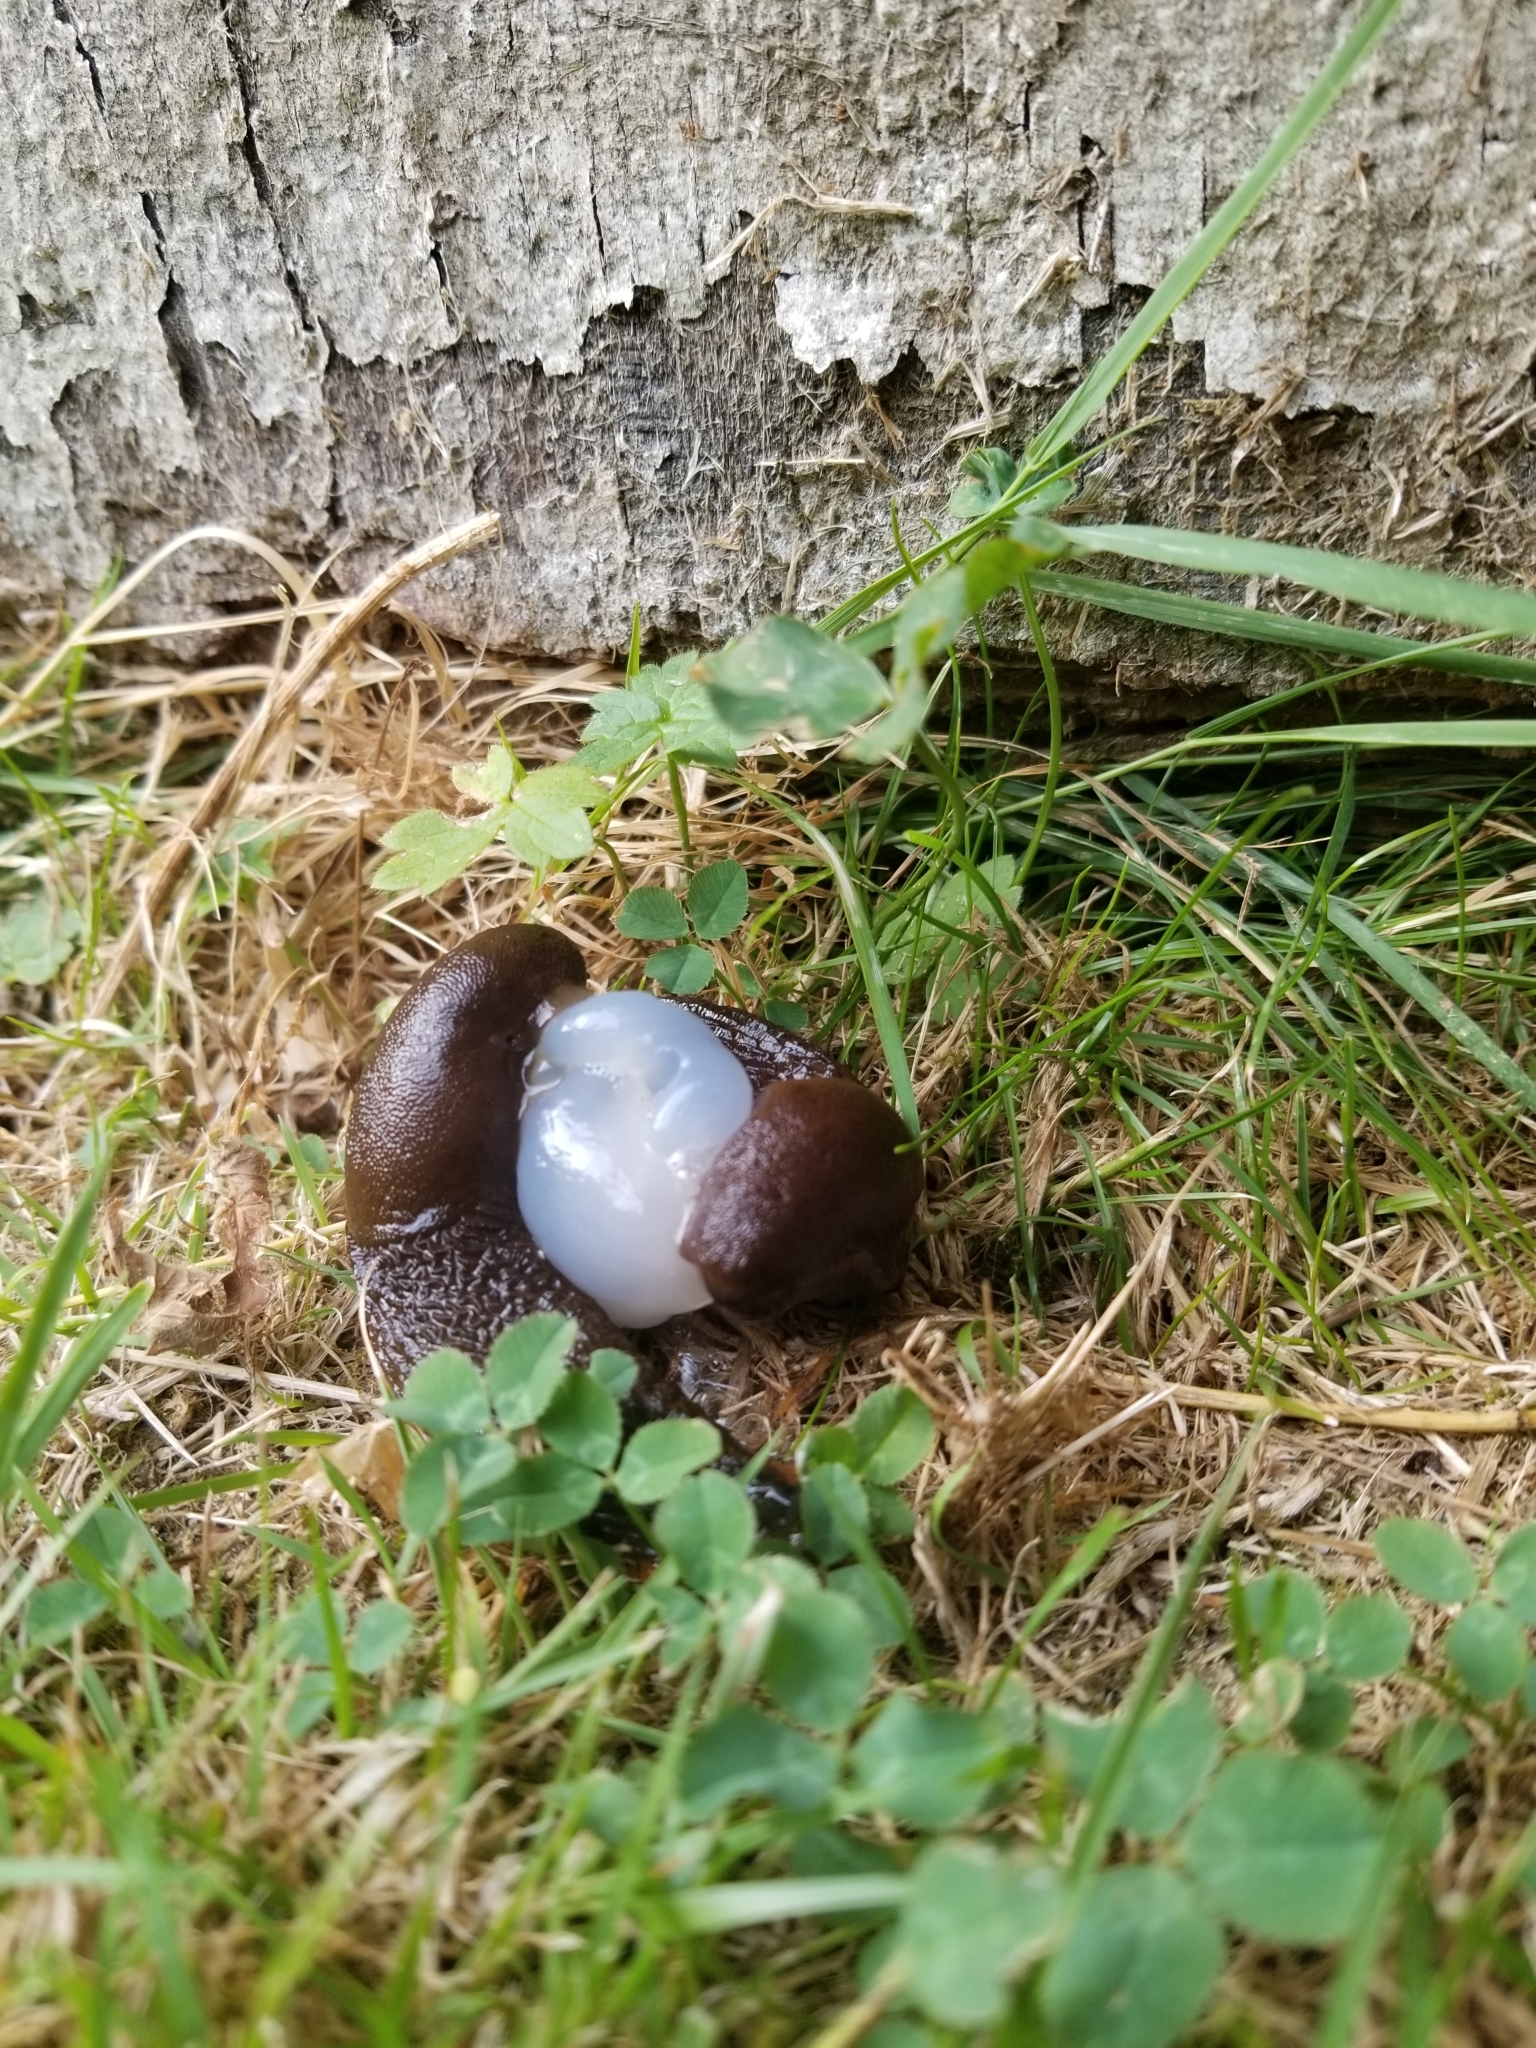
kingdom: Animalia
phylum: Mollusca
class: Gastropoda
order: Stylommatophora
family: Arionidae
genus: Arion
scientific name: Arion
